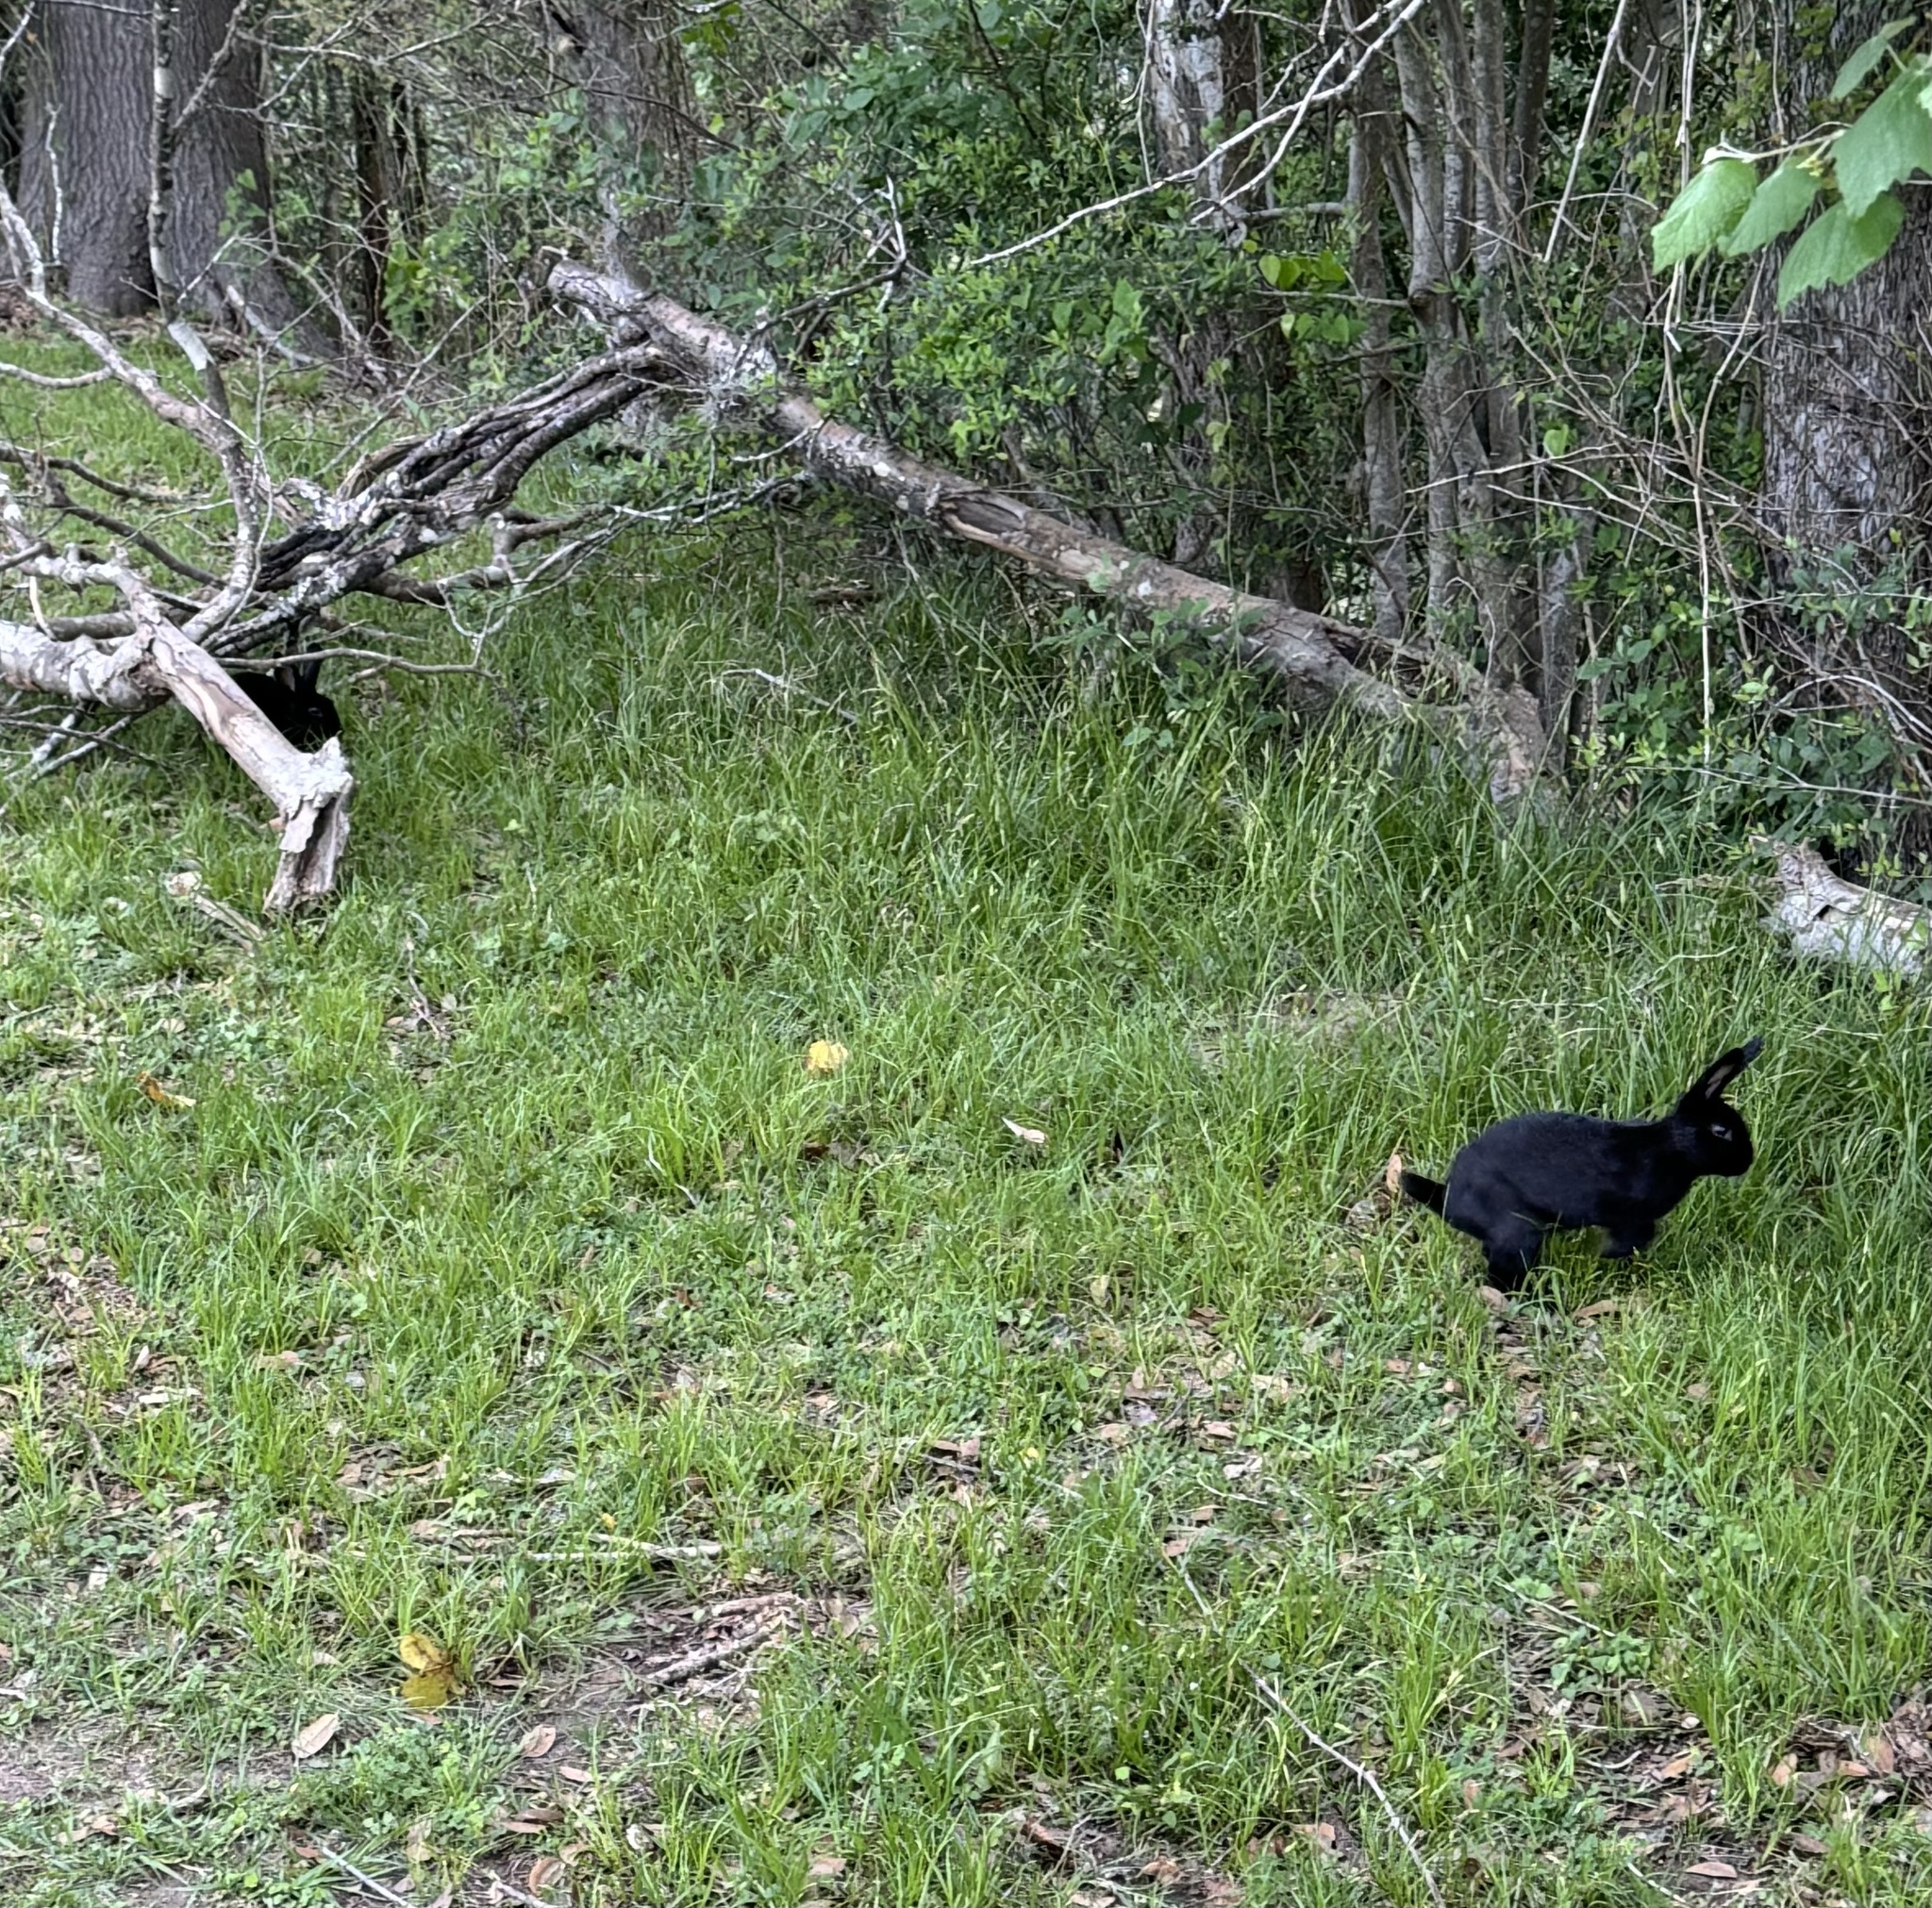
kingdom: Animalia
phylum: Chordata
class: Mammalia
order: Lagomorpha
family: Leporidae
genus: Oryctolagus
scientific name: Oryctolagus cuniculus
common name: European rabbit
